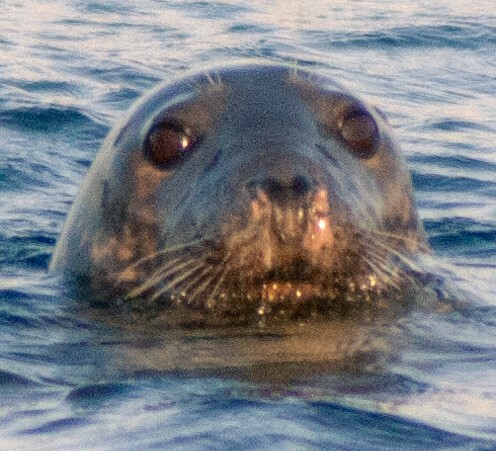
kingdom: Animalia
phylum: Chordata
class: Mammalia
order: Carnivora
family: Phocidae
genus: Halichoerus
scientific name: Halichoerus grypus
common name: Grey seal
